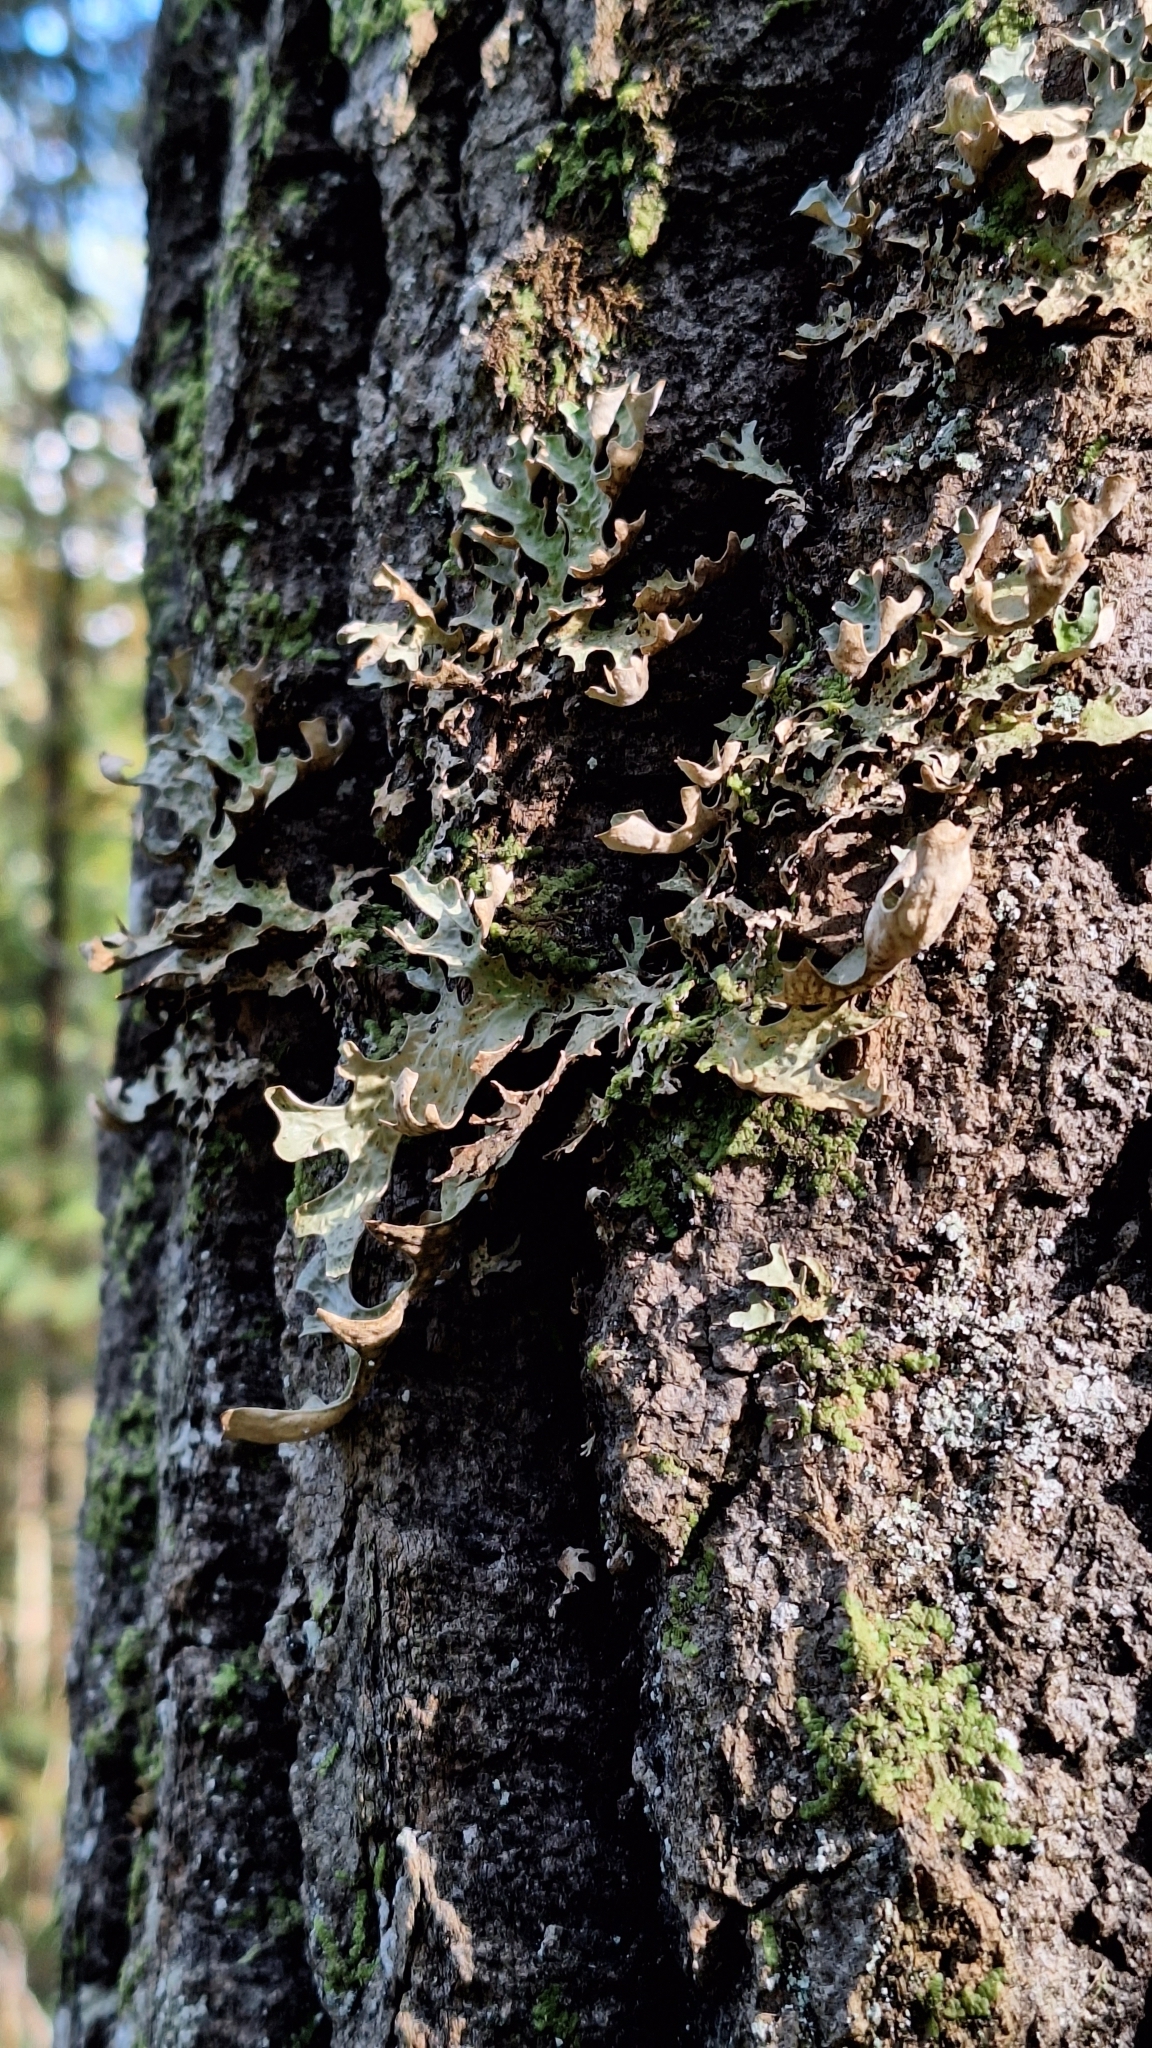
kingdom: Fungi
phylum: Ascomycota
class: Lecanoromycetes
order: Peltigerales
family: Lobariaceae
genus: Lobaria
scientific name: Lobaria pulmonaria
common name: Lungwort
